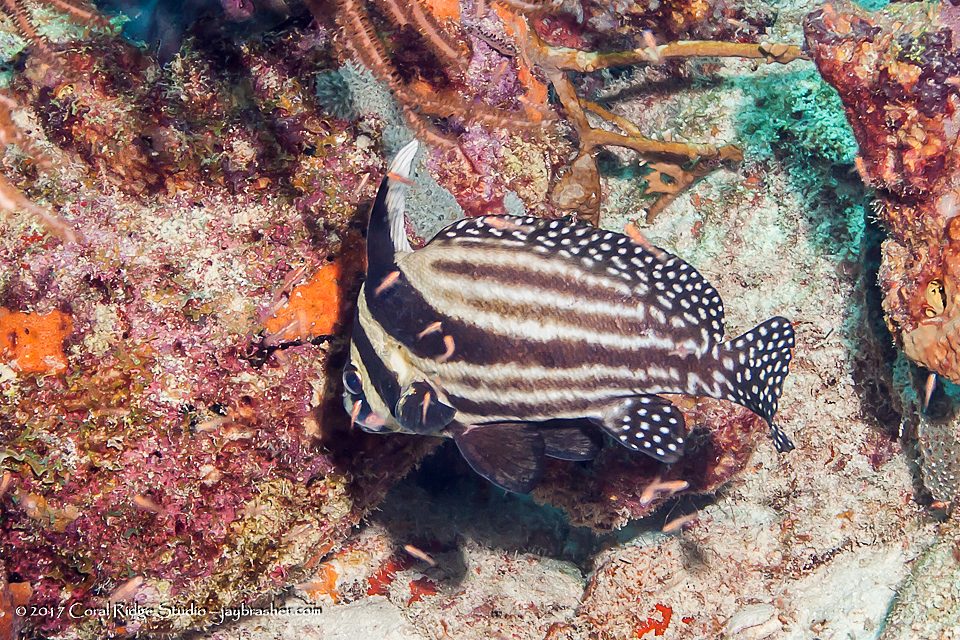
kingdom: Animalia
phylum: Chordata
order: Perciformes
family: Sciaenidae
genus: Equetus
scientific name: Equetus punctatus
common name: Spotted drum
